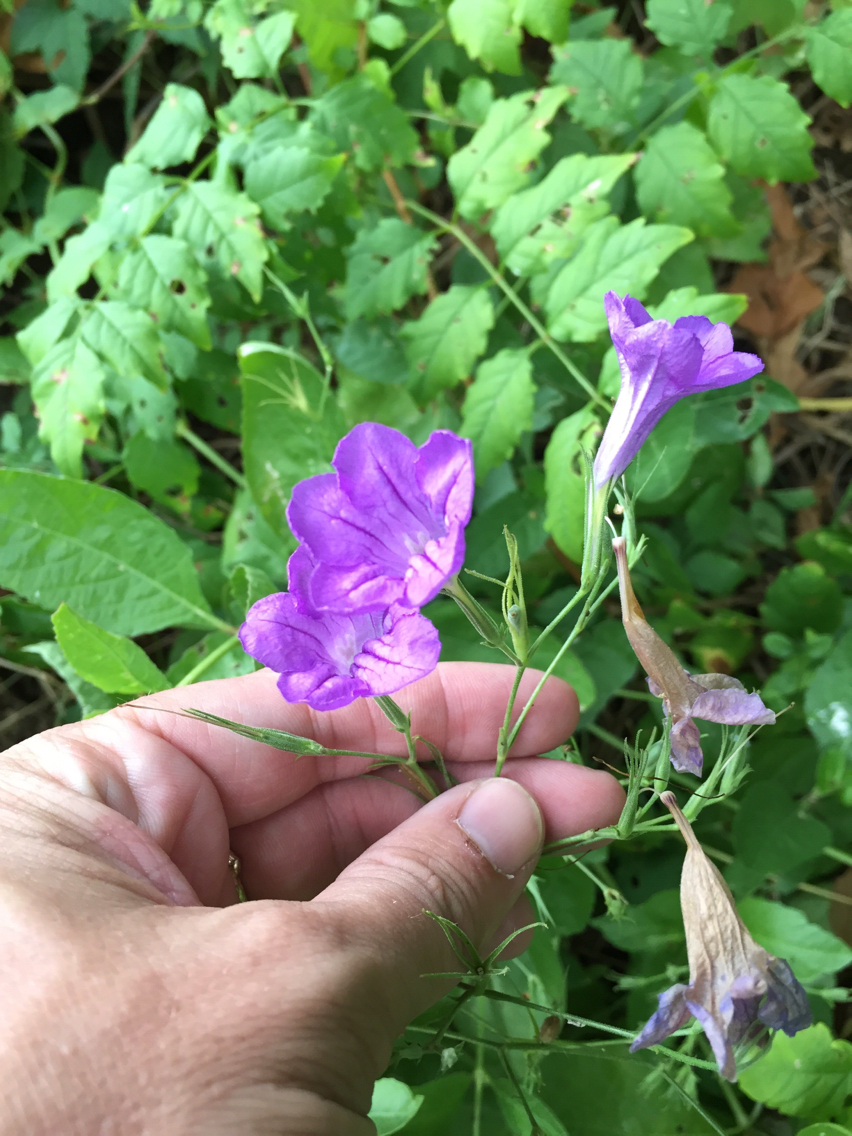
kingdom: Plantae
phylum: Tracheophyta
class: Magnoliopsida
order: Lamiales
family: Acanthaceae
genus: Ruellia
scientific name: Ruellia ciliatiflora
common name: Hairyflower wild petunia
